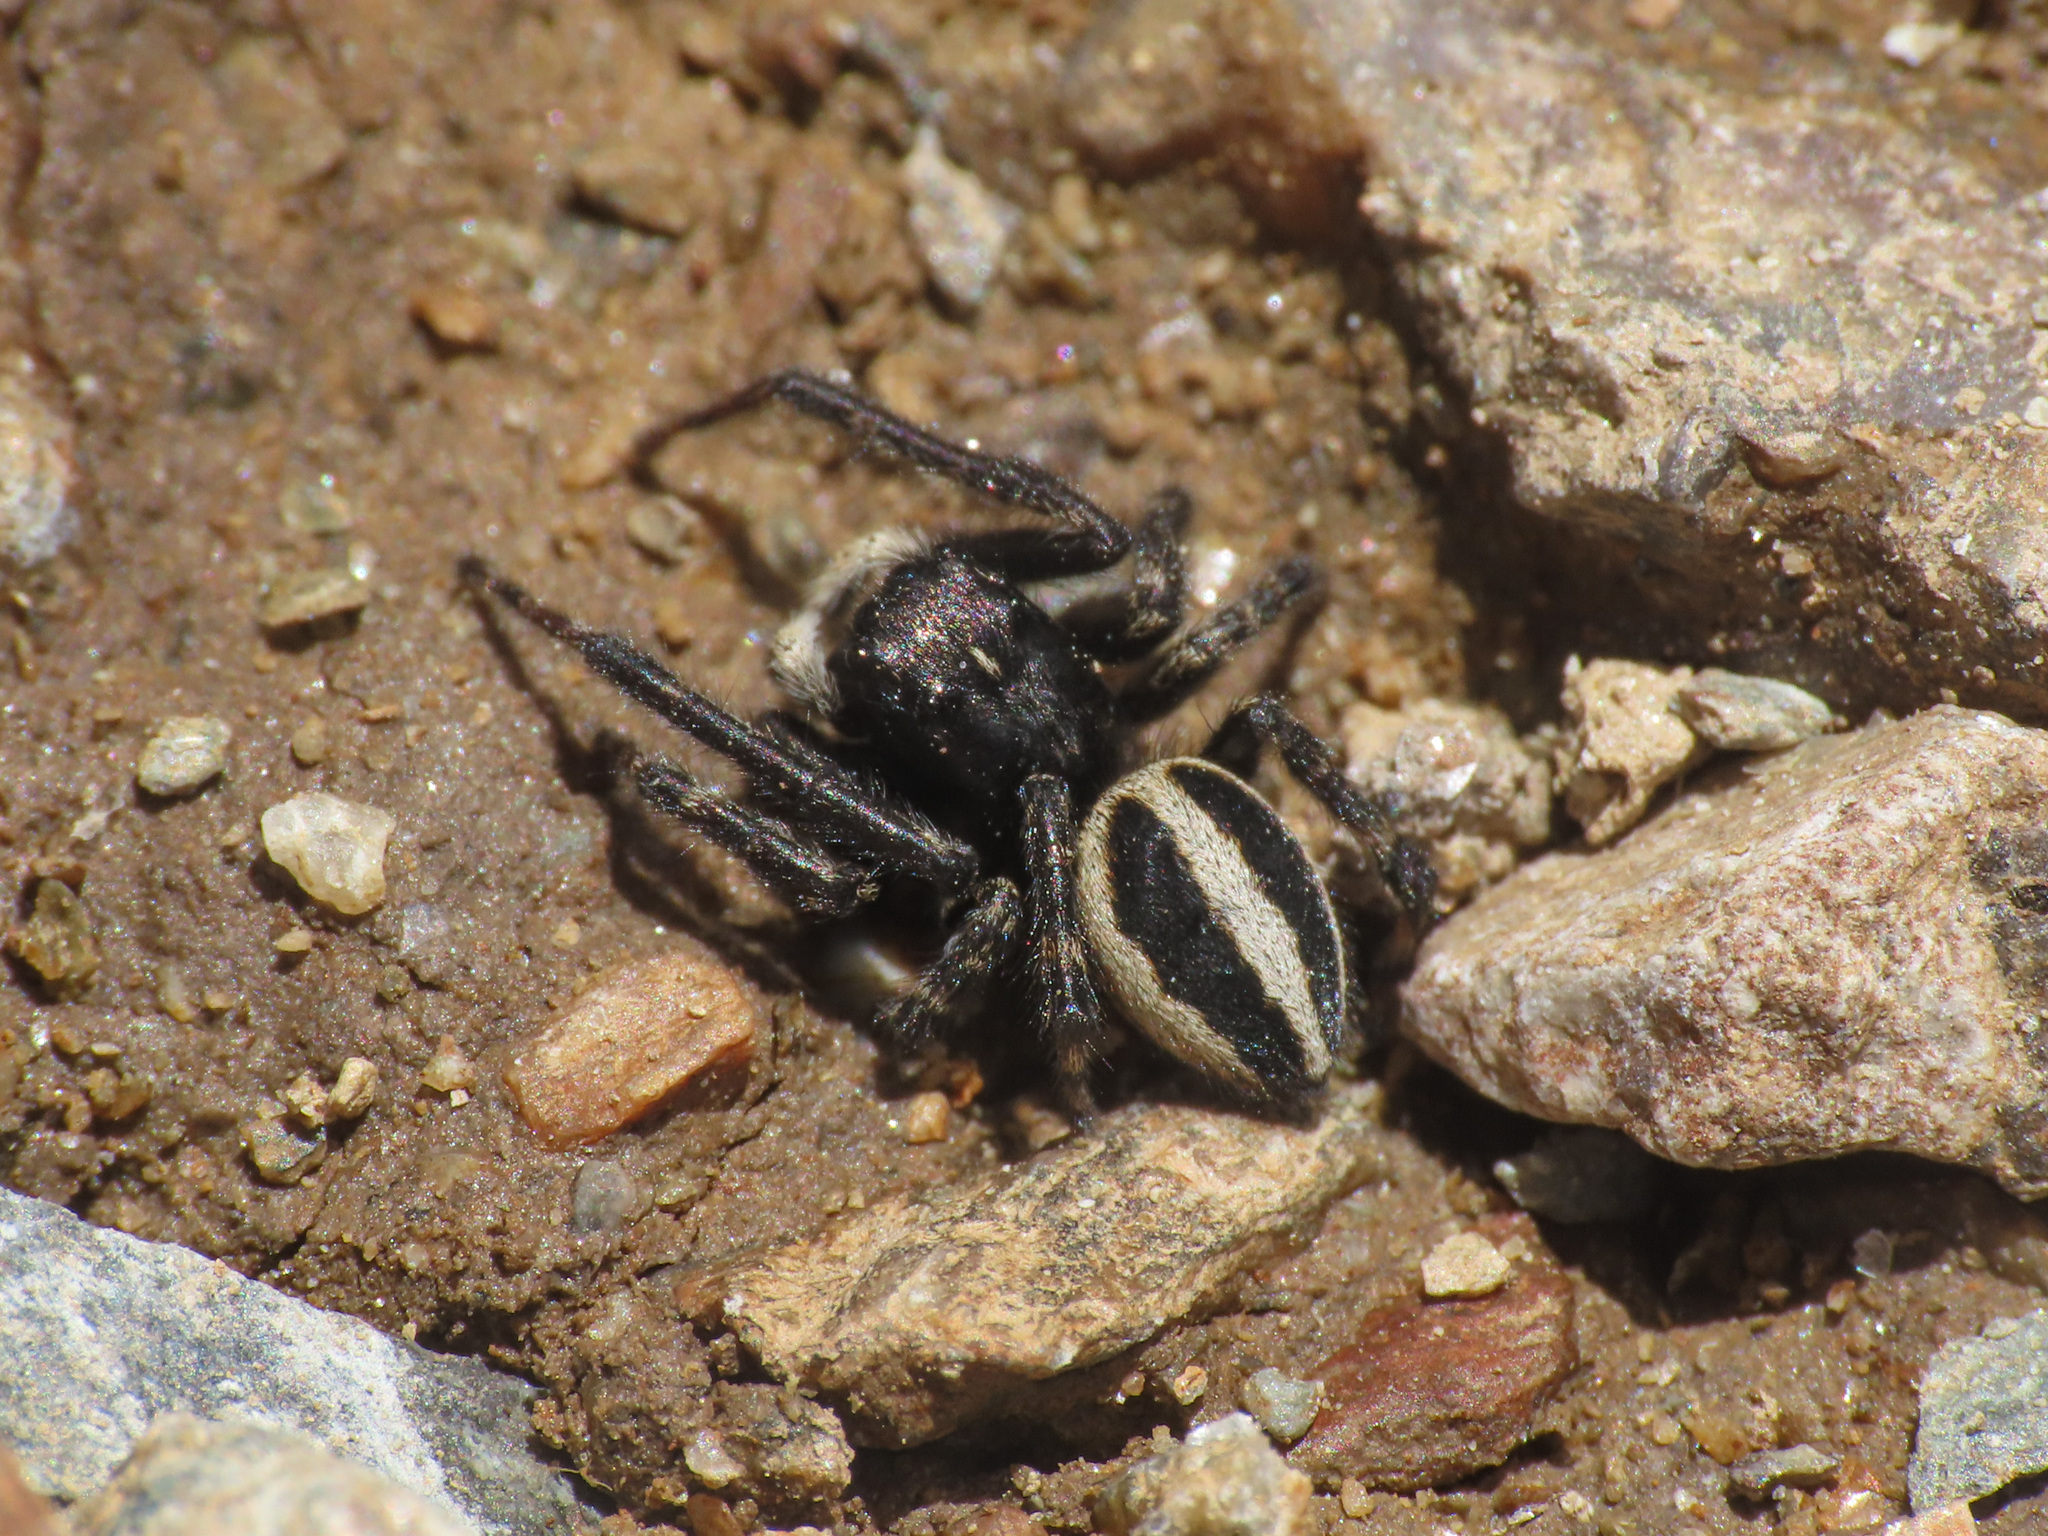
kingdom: Animalia
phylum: Arthropoda
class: Arachnida
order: Araneae
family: Salticidae
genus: Attulus
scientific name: Attulus longipes
